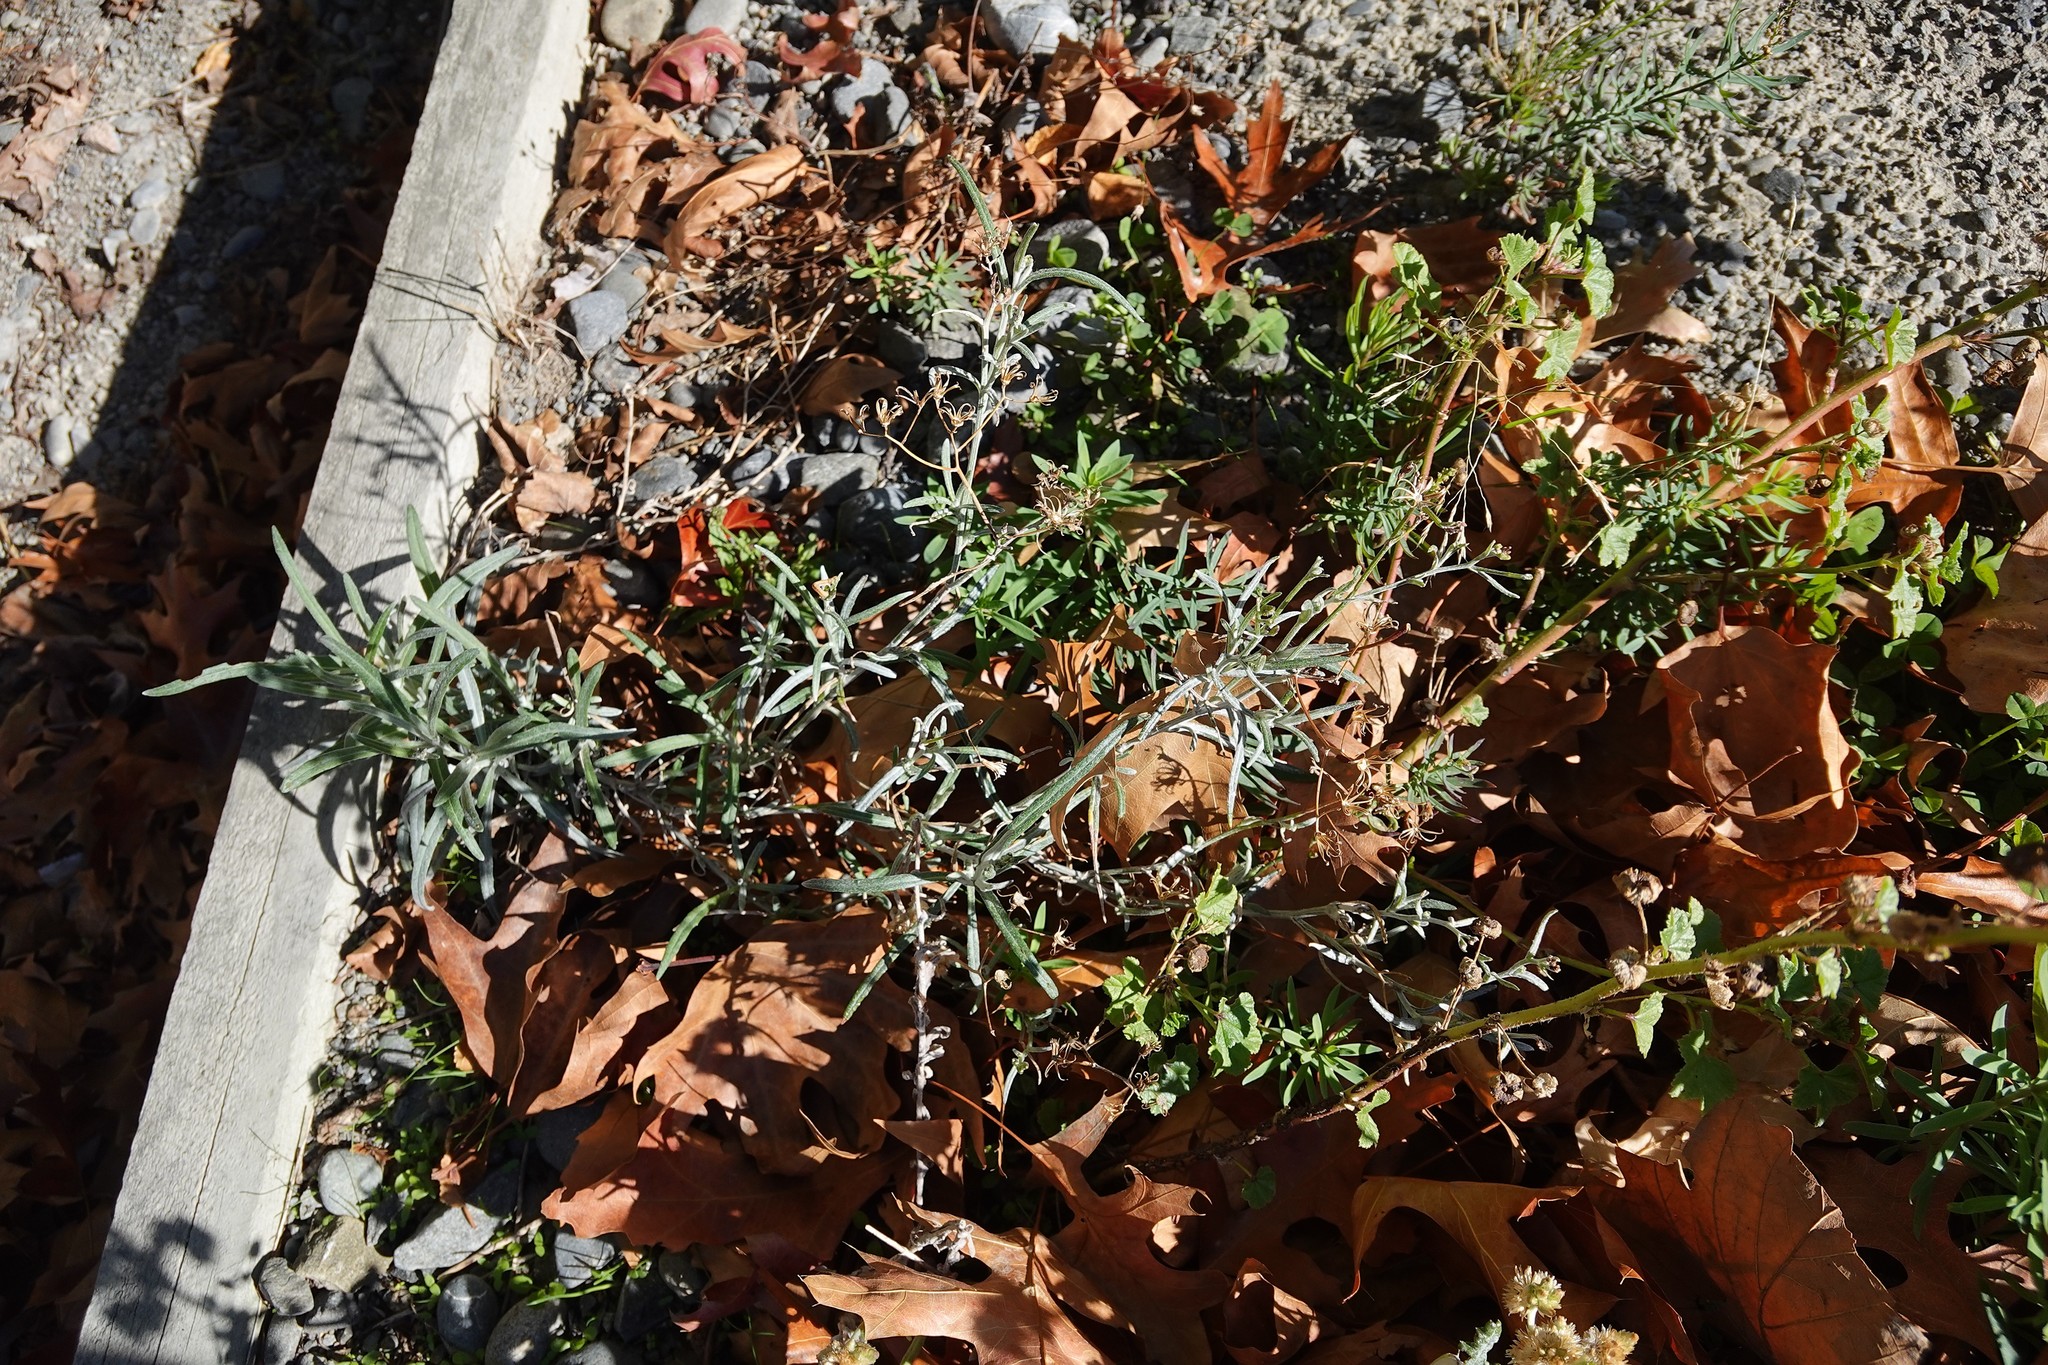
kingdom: Plantae
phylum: Tracheophyta
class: Magnoliopsida
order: Asterales
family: Asteraceae
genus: Senecio
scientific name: Senecio quadridentatus
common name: Cotton fireweed
